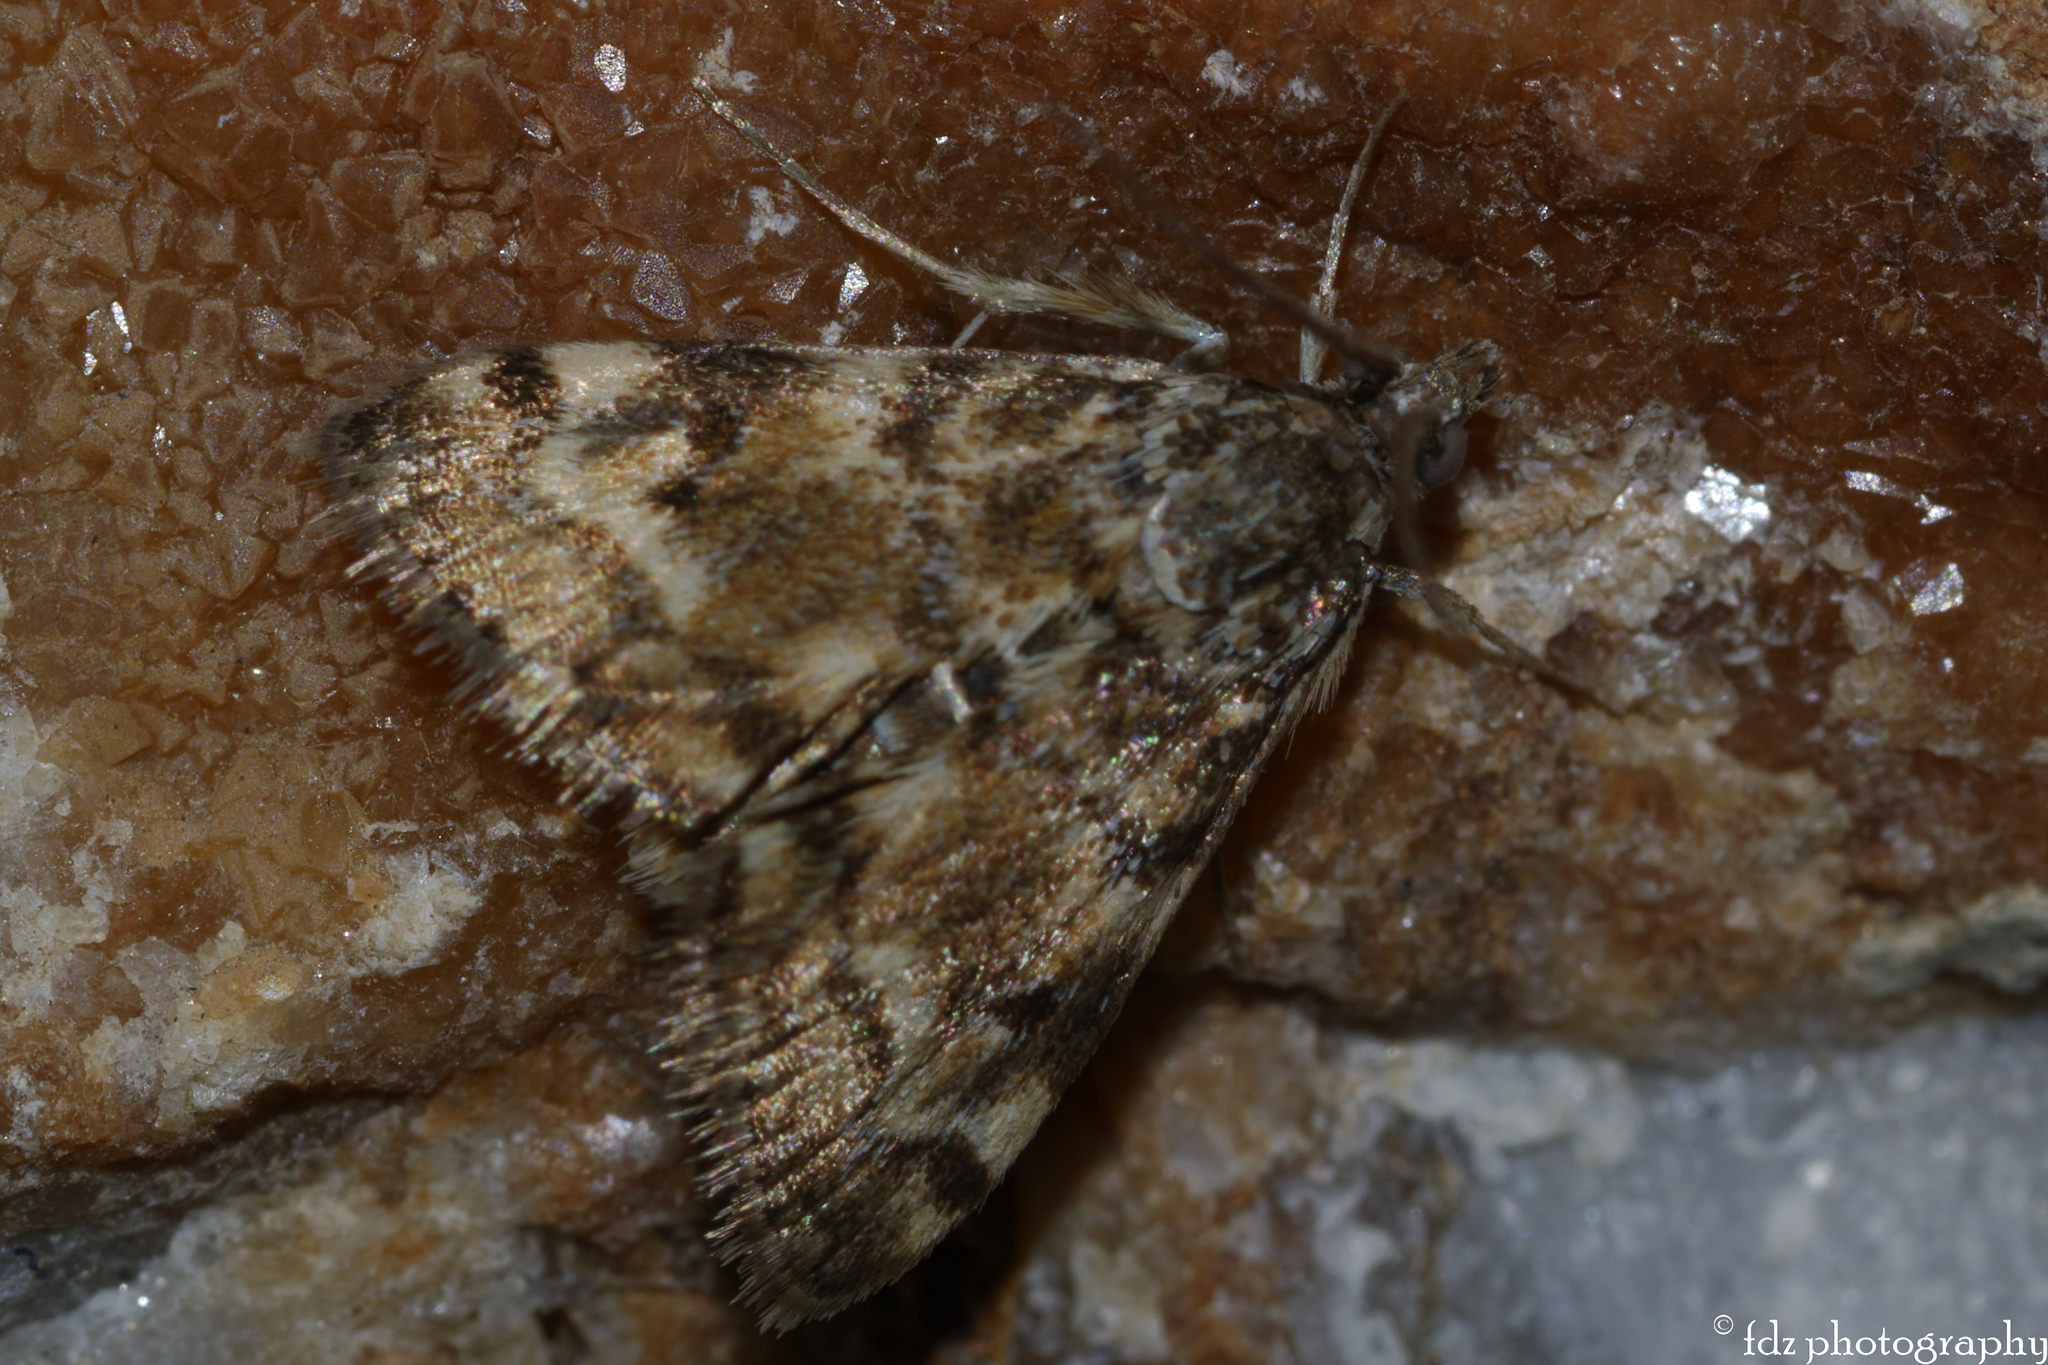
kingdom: Animalia
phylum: Arthropoda
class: Insecta
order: Lepidoptera
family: Crambidae
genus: Noctuelia
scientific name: Noctuelia Aporodes floralis
